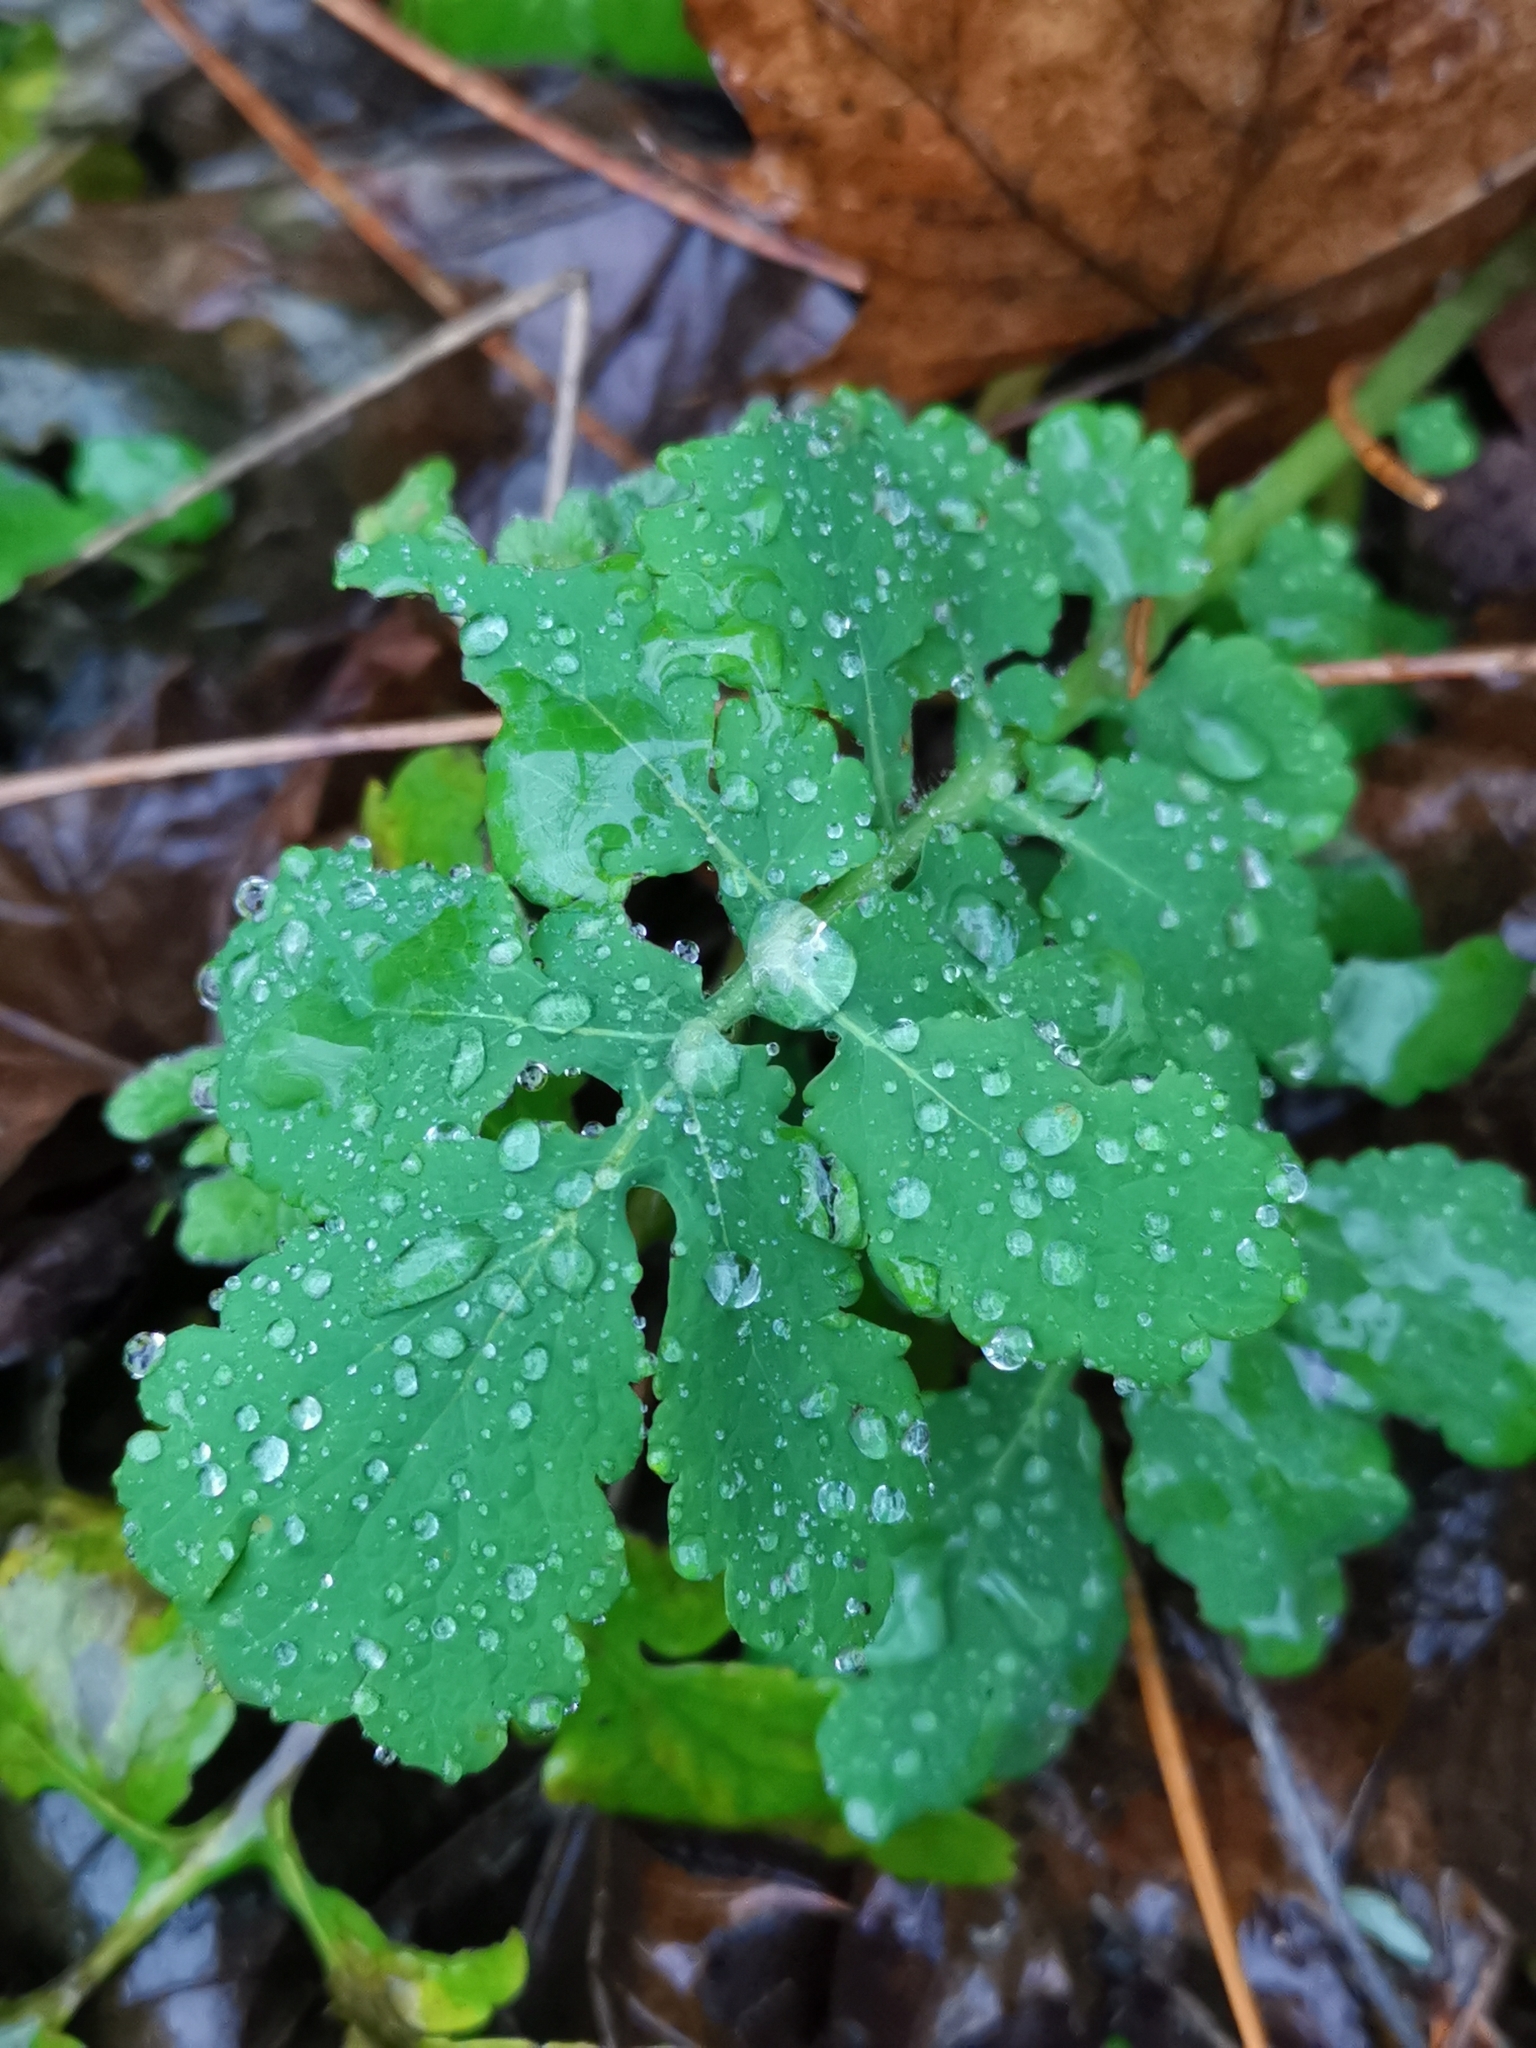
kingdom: Plantae
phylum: Tracheophyta
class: Magnoliopsida
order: Ranunculales
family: Papaveraceae
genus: Chelidonium
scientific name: Chelidonium majus
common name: Greater celandine
